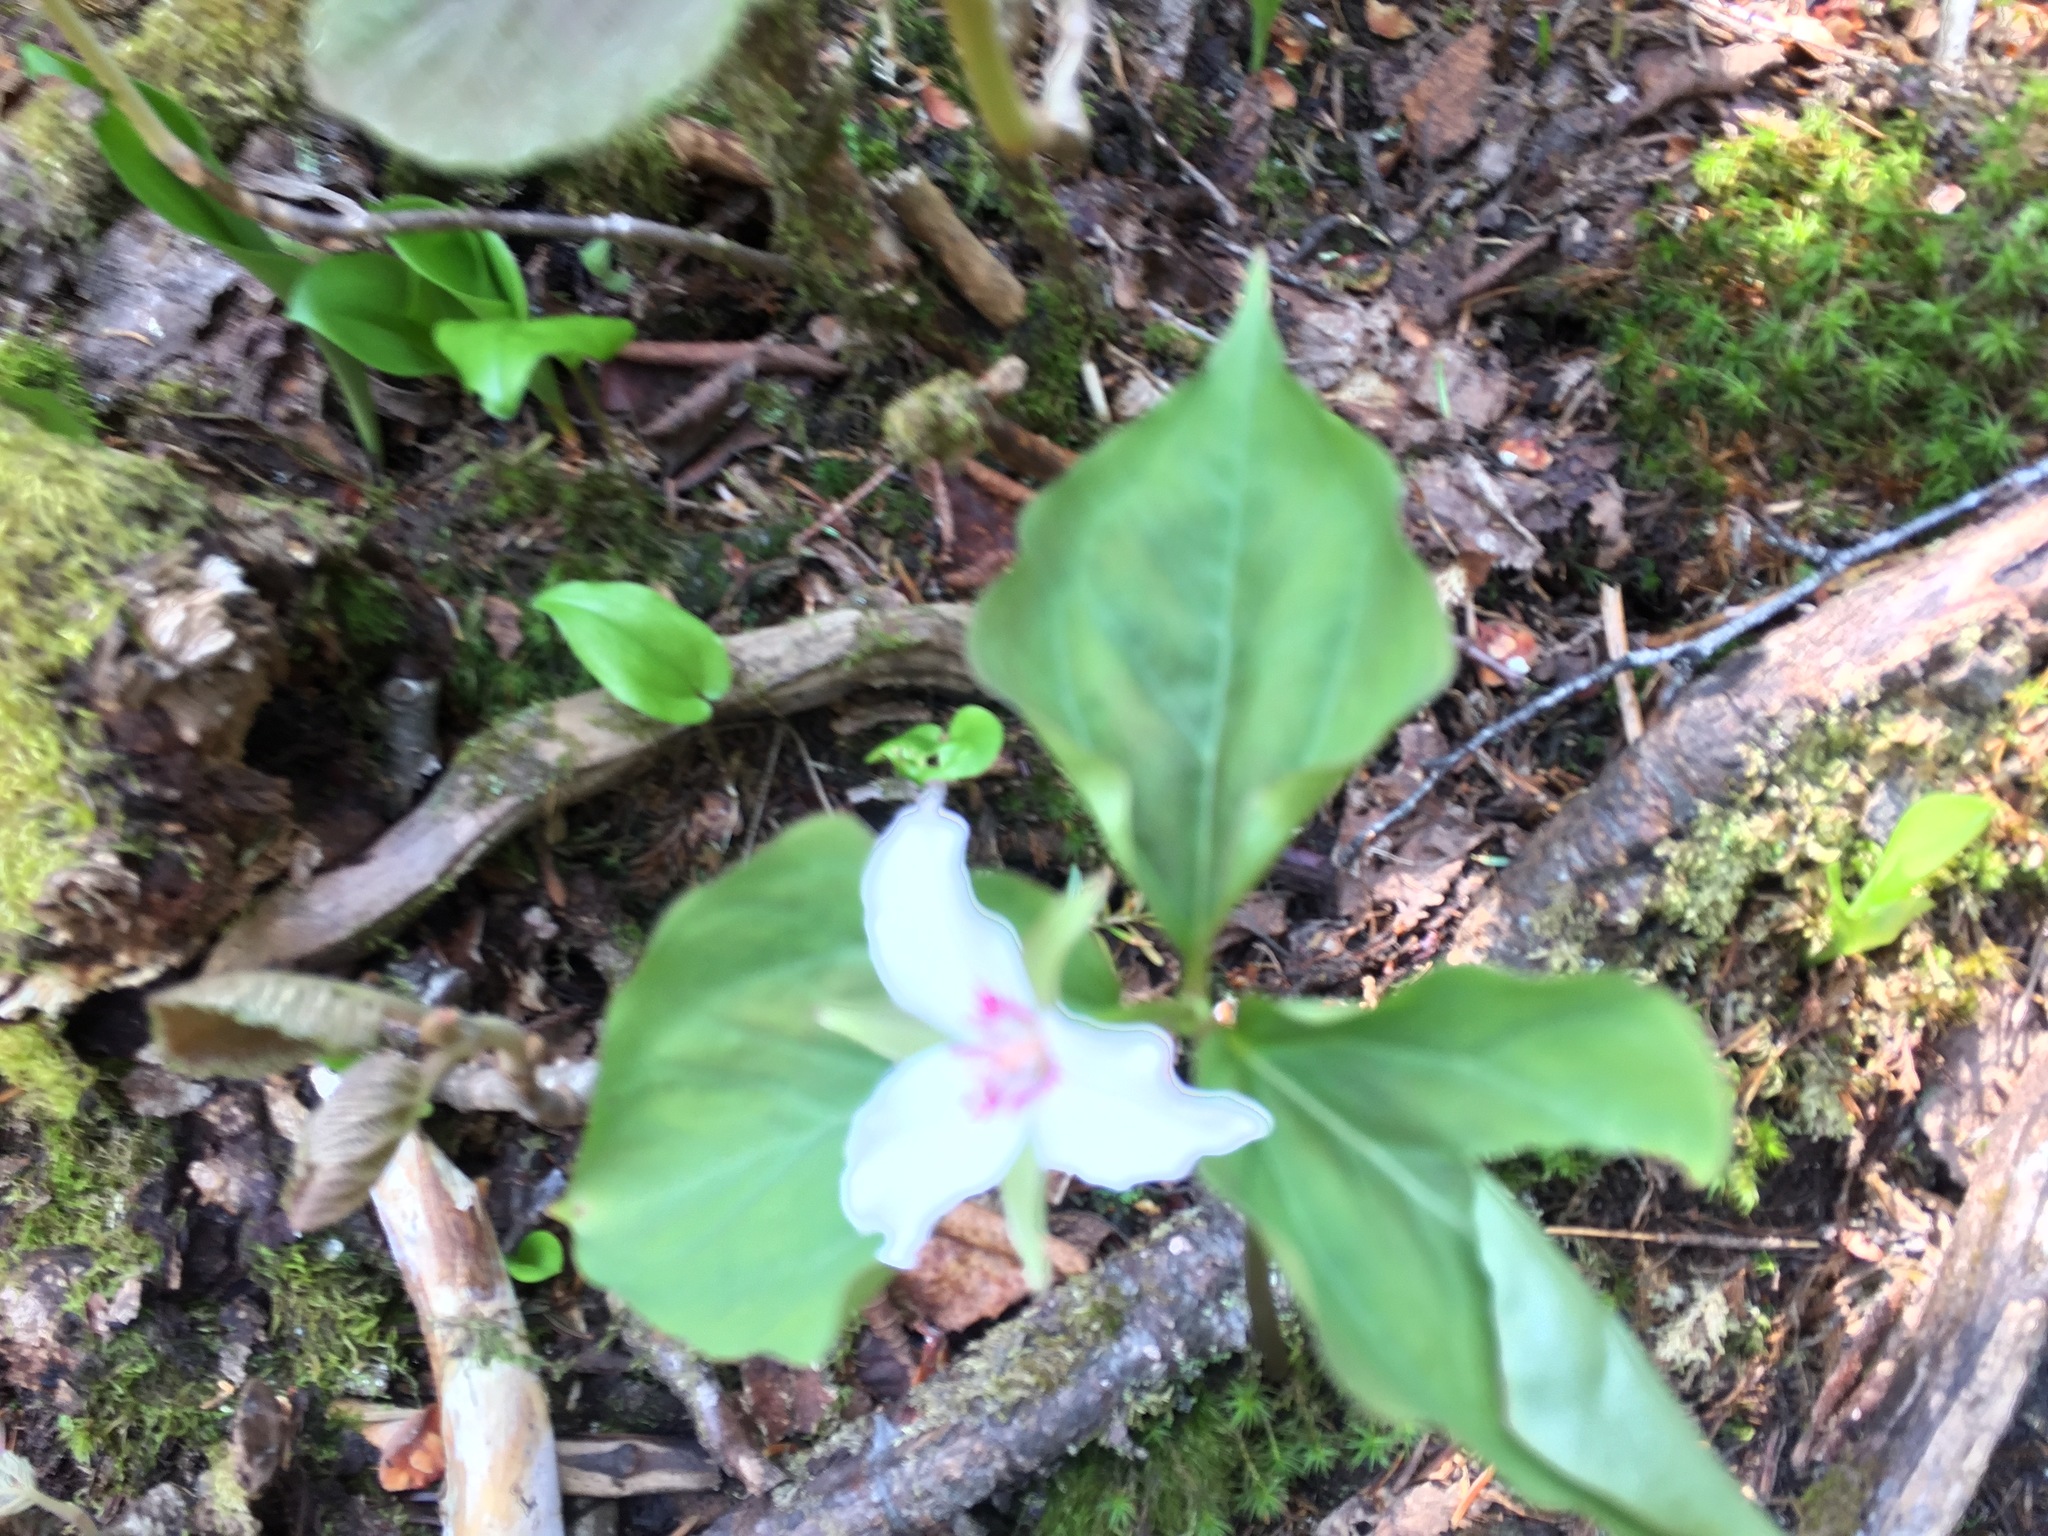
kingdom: Plantae
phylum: Tracheophyta
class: Liliopsida
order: Liliales
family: Melanthiaceae
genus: Trillium
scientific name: Trillium undulatum
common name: Paint trillium
